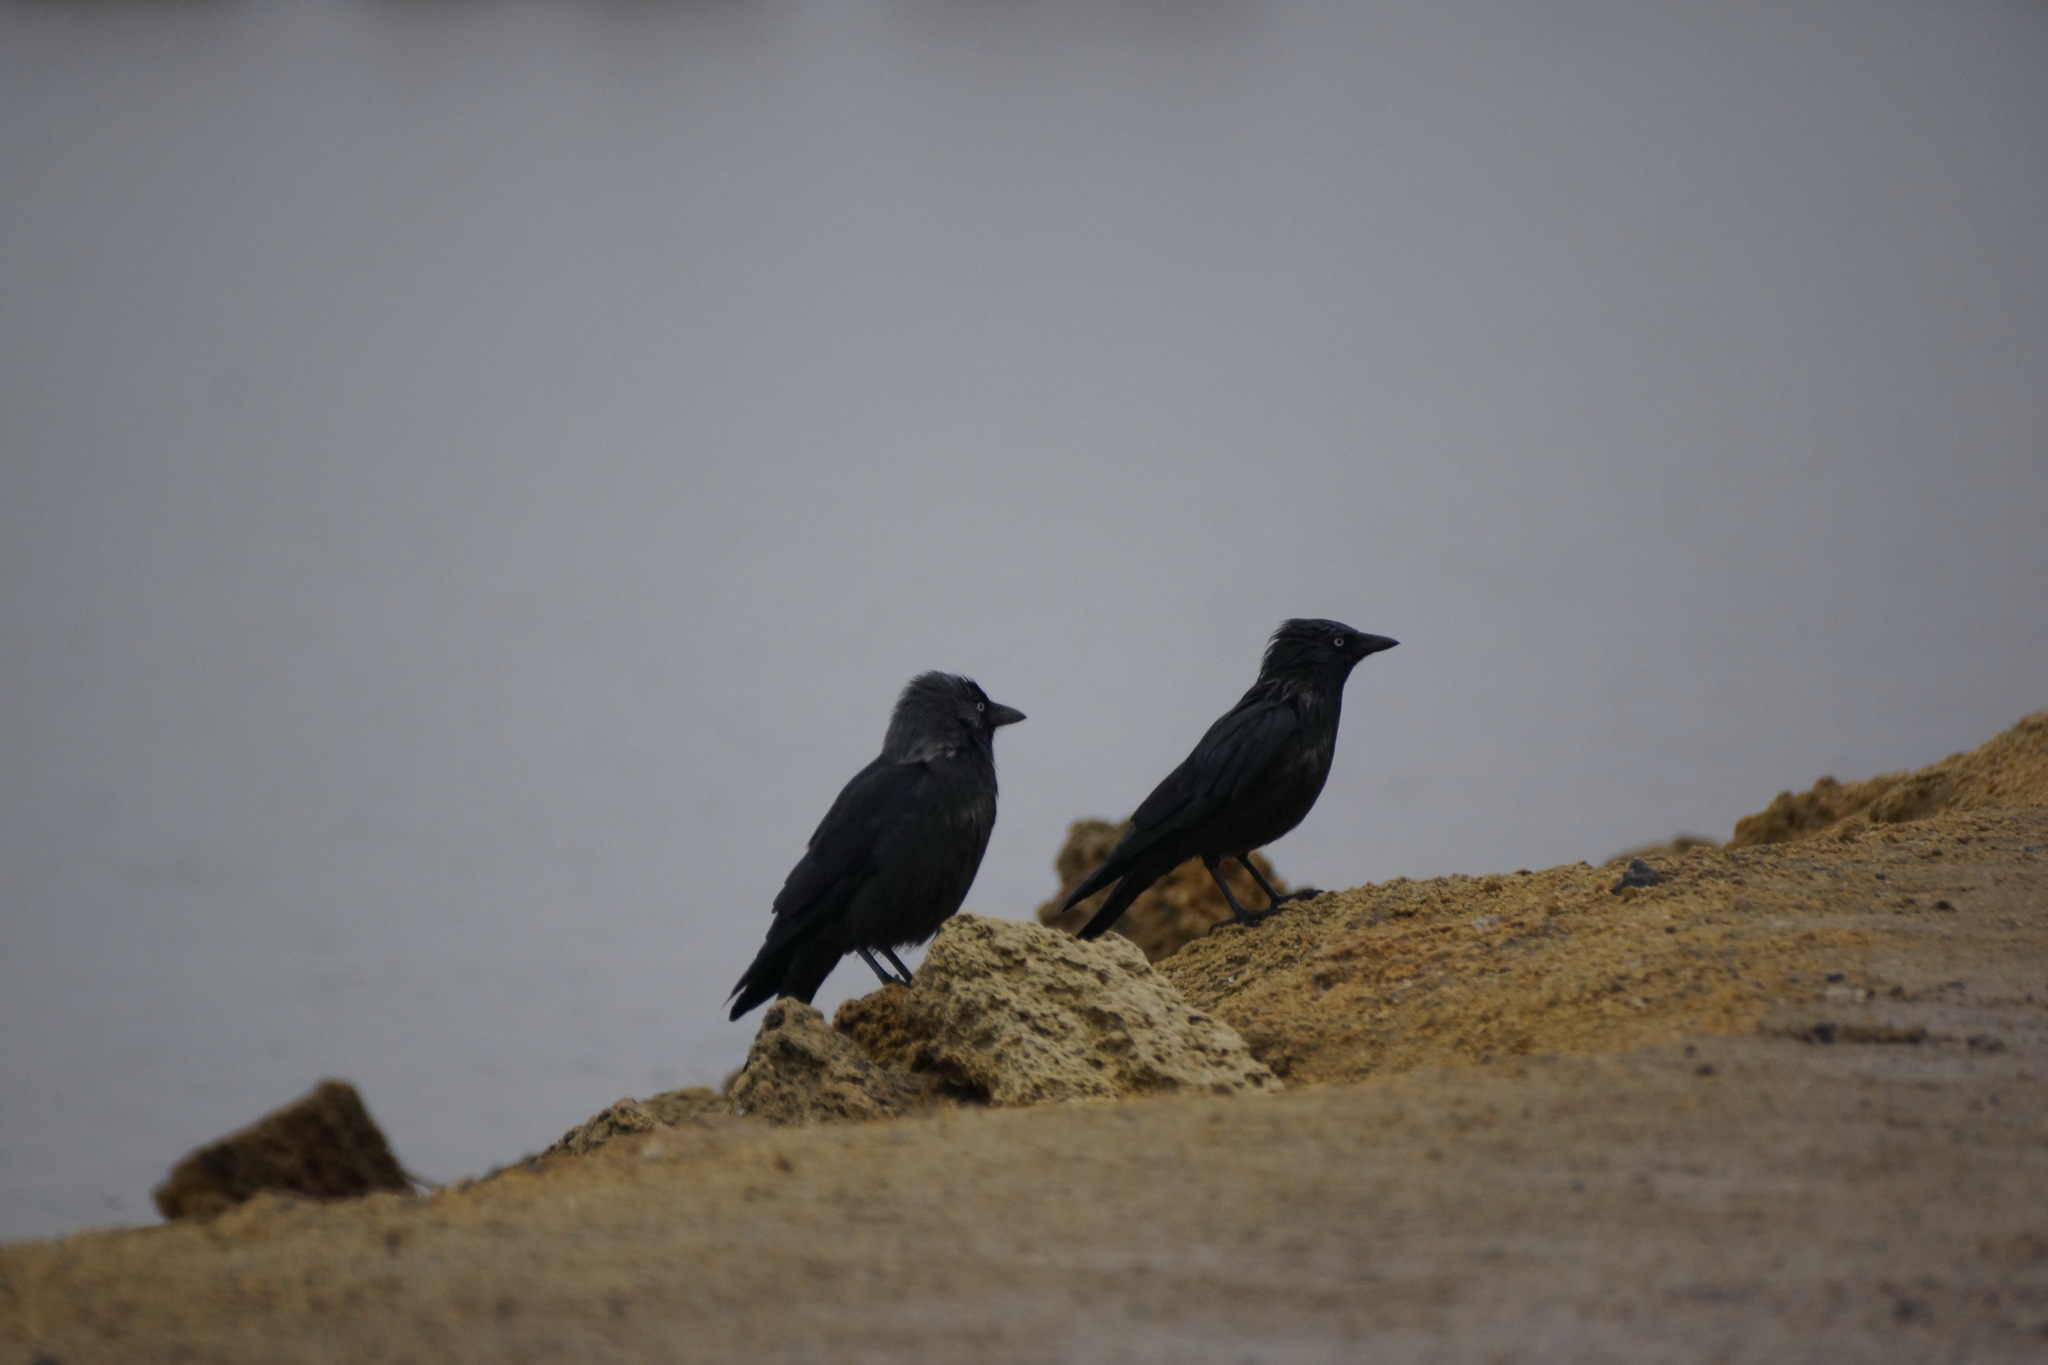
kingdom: Animalia
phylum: Chordata
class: Aves
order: Passeriformes
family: Corvidae
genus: Coloeus
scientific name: Coloeus monedula
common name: Western jackdaw
